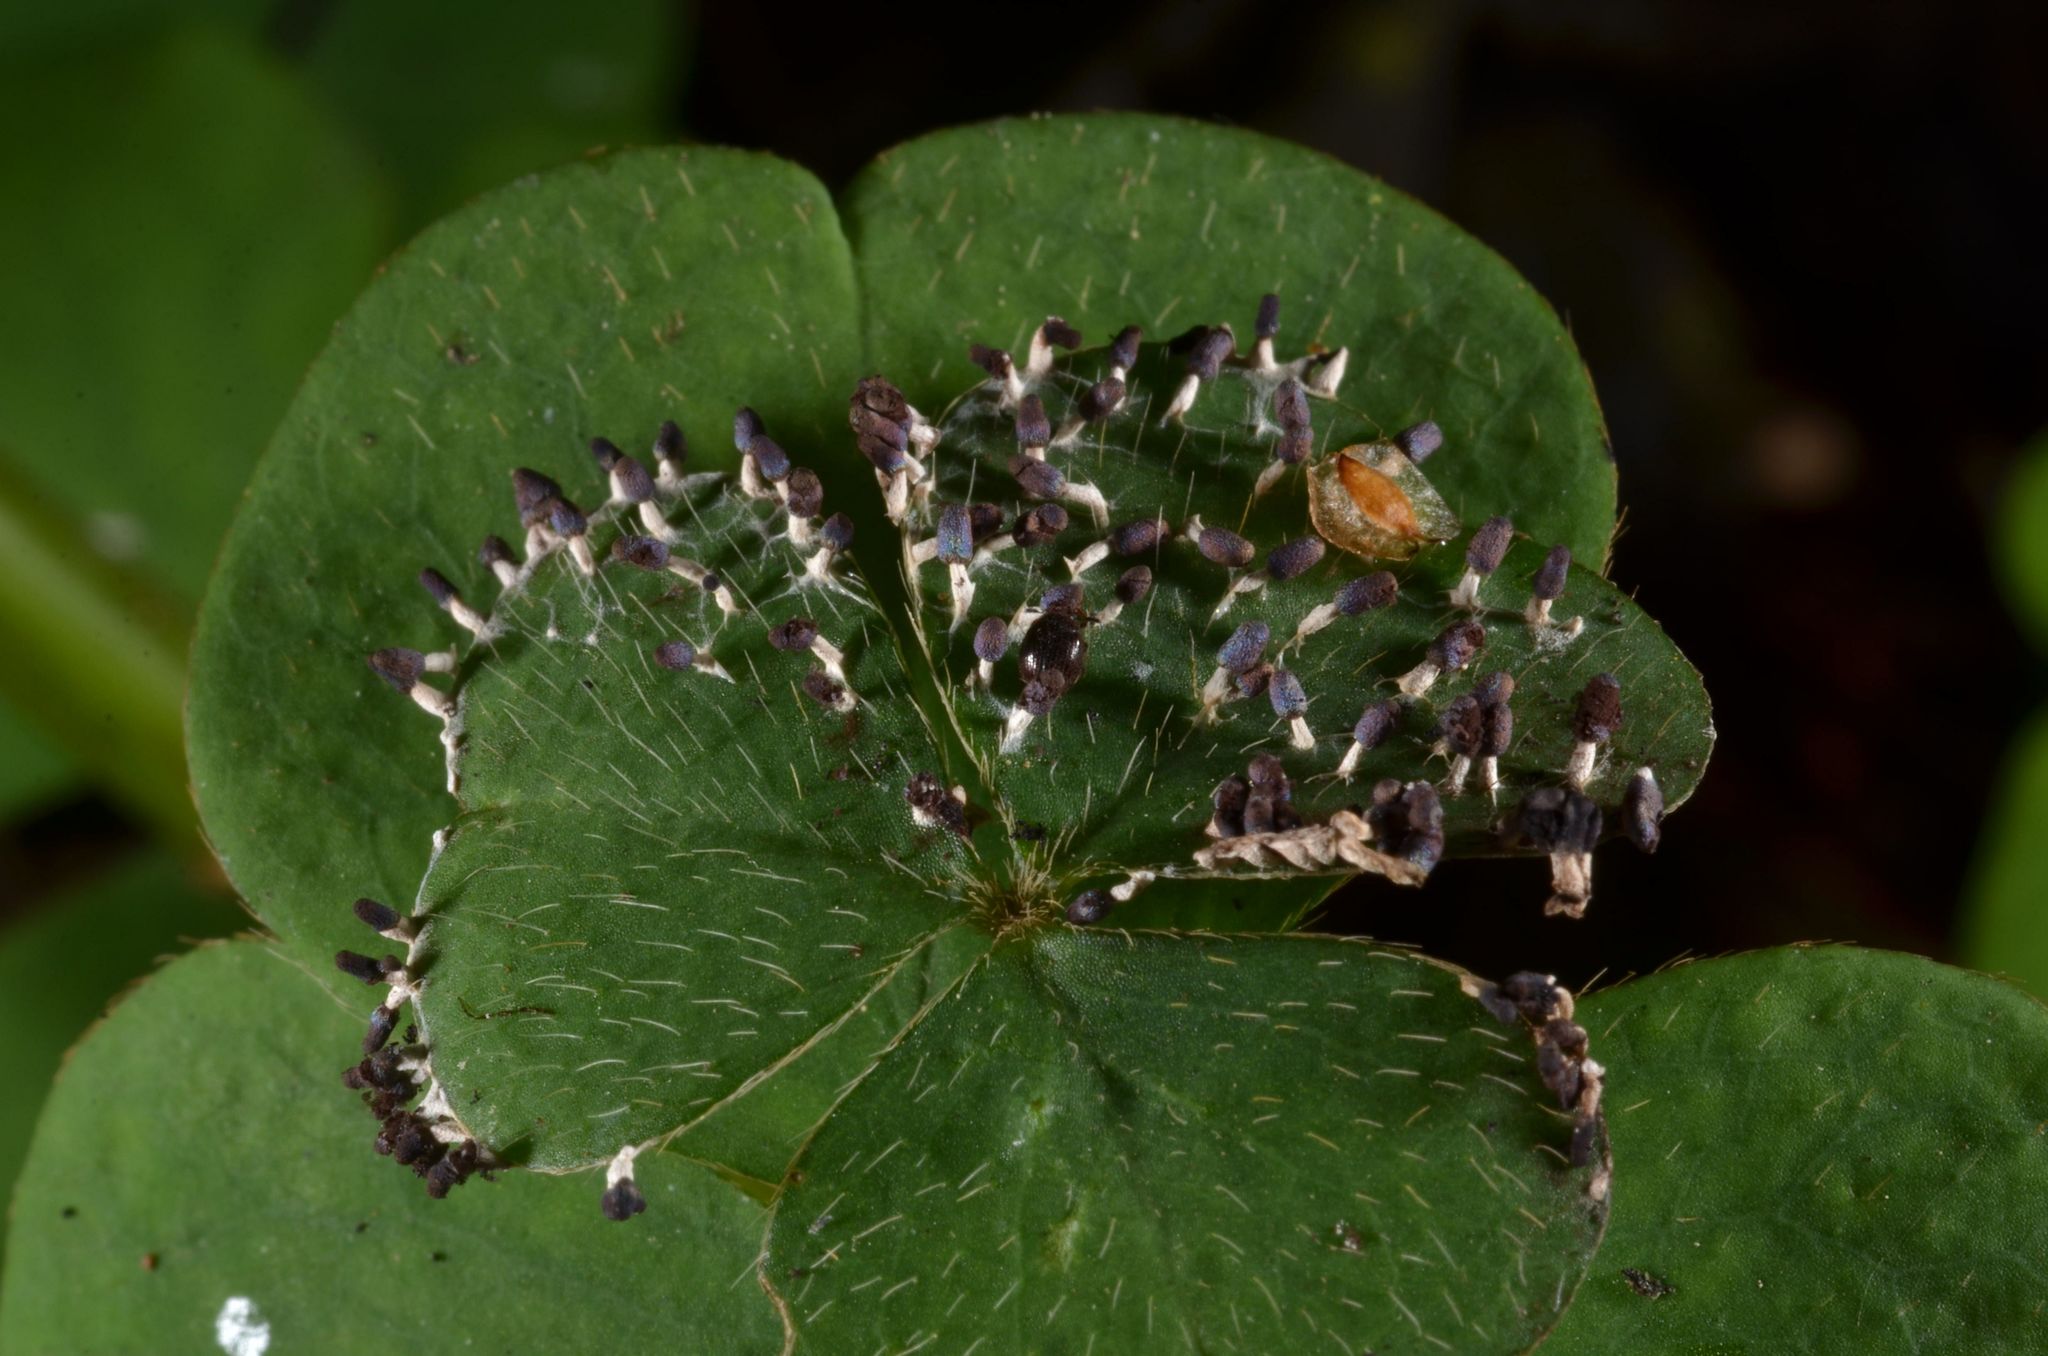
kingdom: Protozoa
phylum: Mycetozoa
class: Myxomycetes
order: Physarales
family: Didymiaceae
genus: Diachea
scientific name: Diachea leucopodia
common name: White-footed slime
